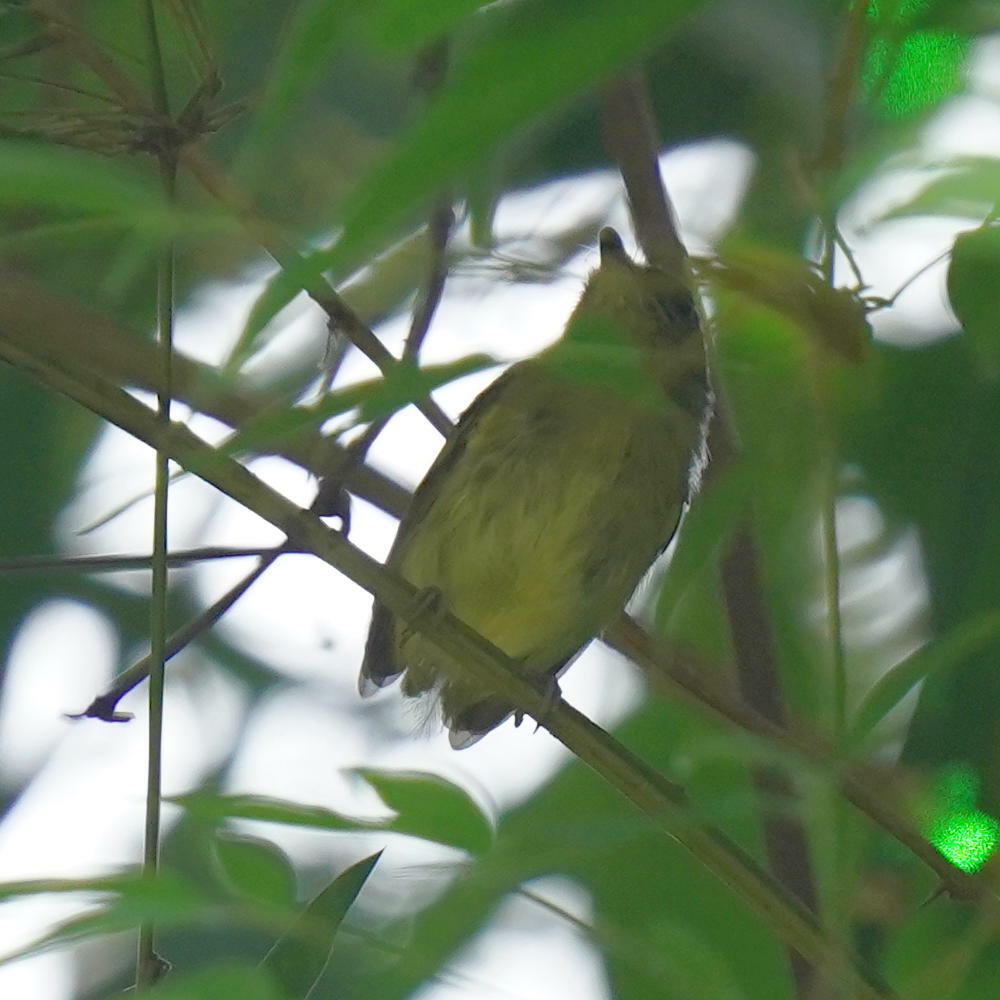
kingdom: Animalia
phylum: Chordata
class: Aves
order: Passeriformes
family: Tyrannidae
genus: Oncostoma
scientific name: Oncostoma olivaceum
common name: Southern bentbill
